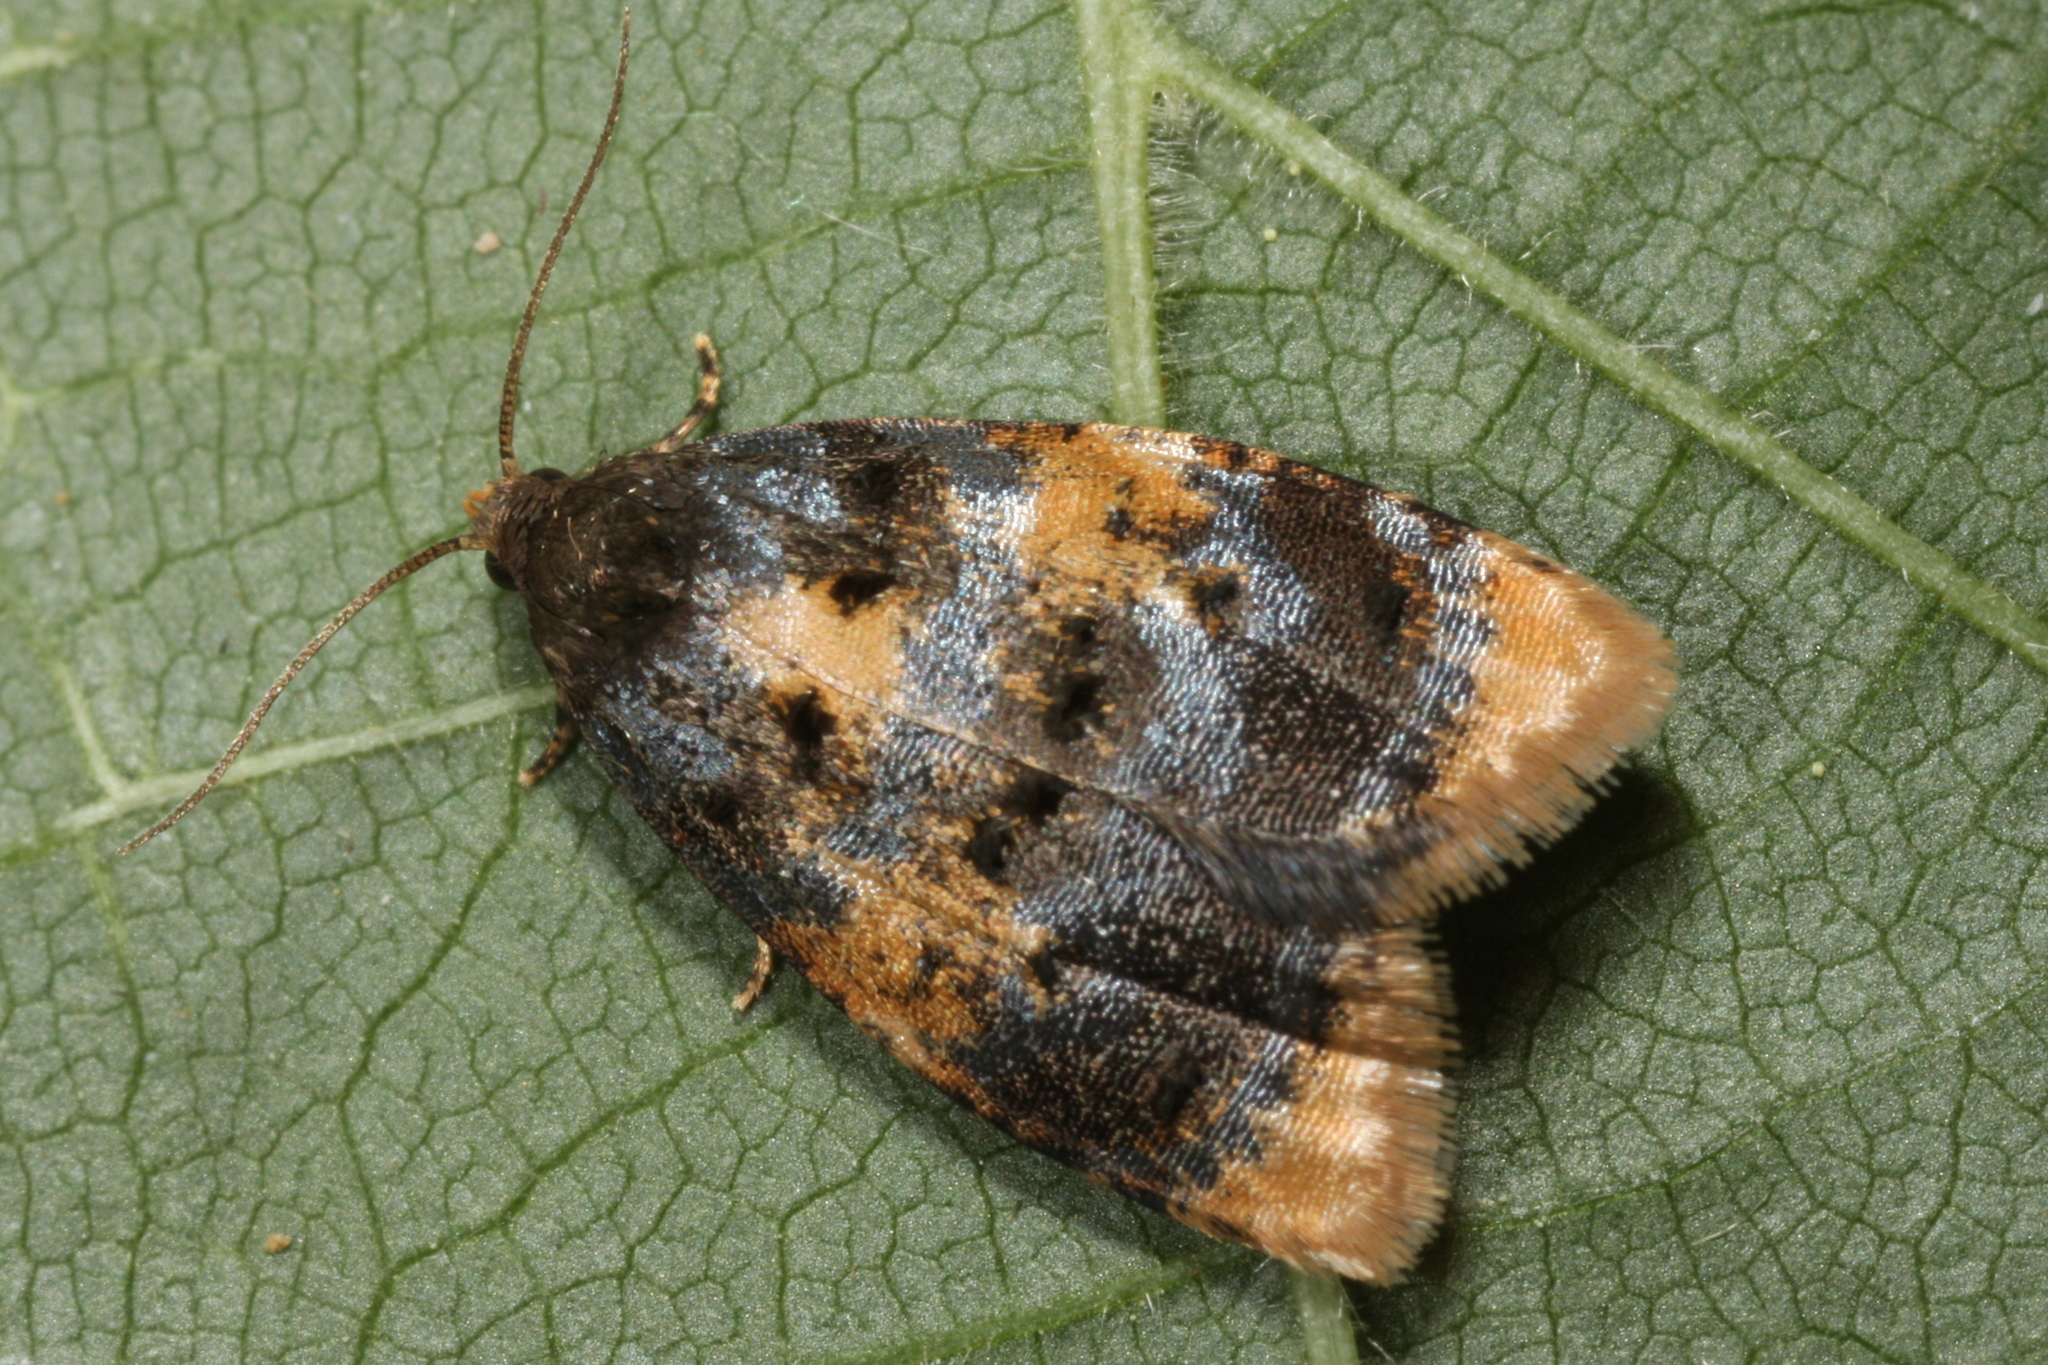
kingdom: Animalia
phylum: Arthropoda
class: Insecta
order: Lepidoptera
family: Tortricidae
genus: Spatalistis
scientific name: Spatalistis bifasciana
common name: Small purple button
